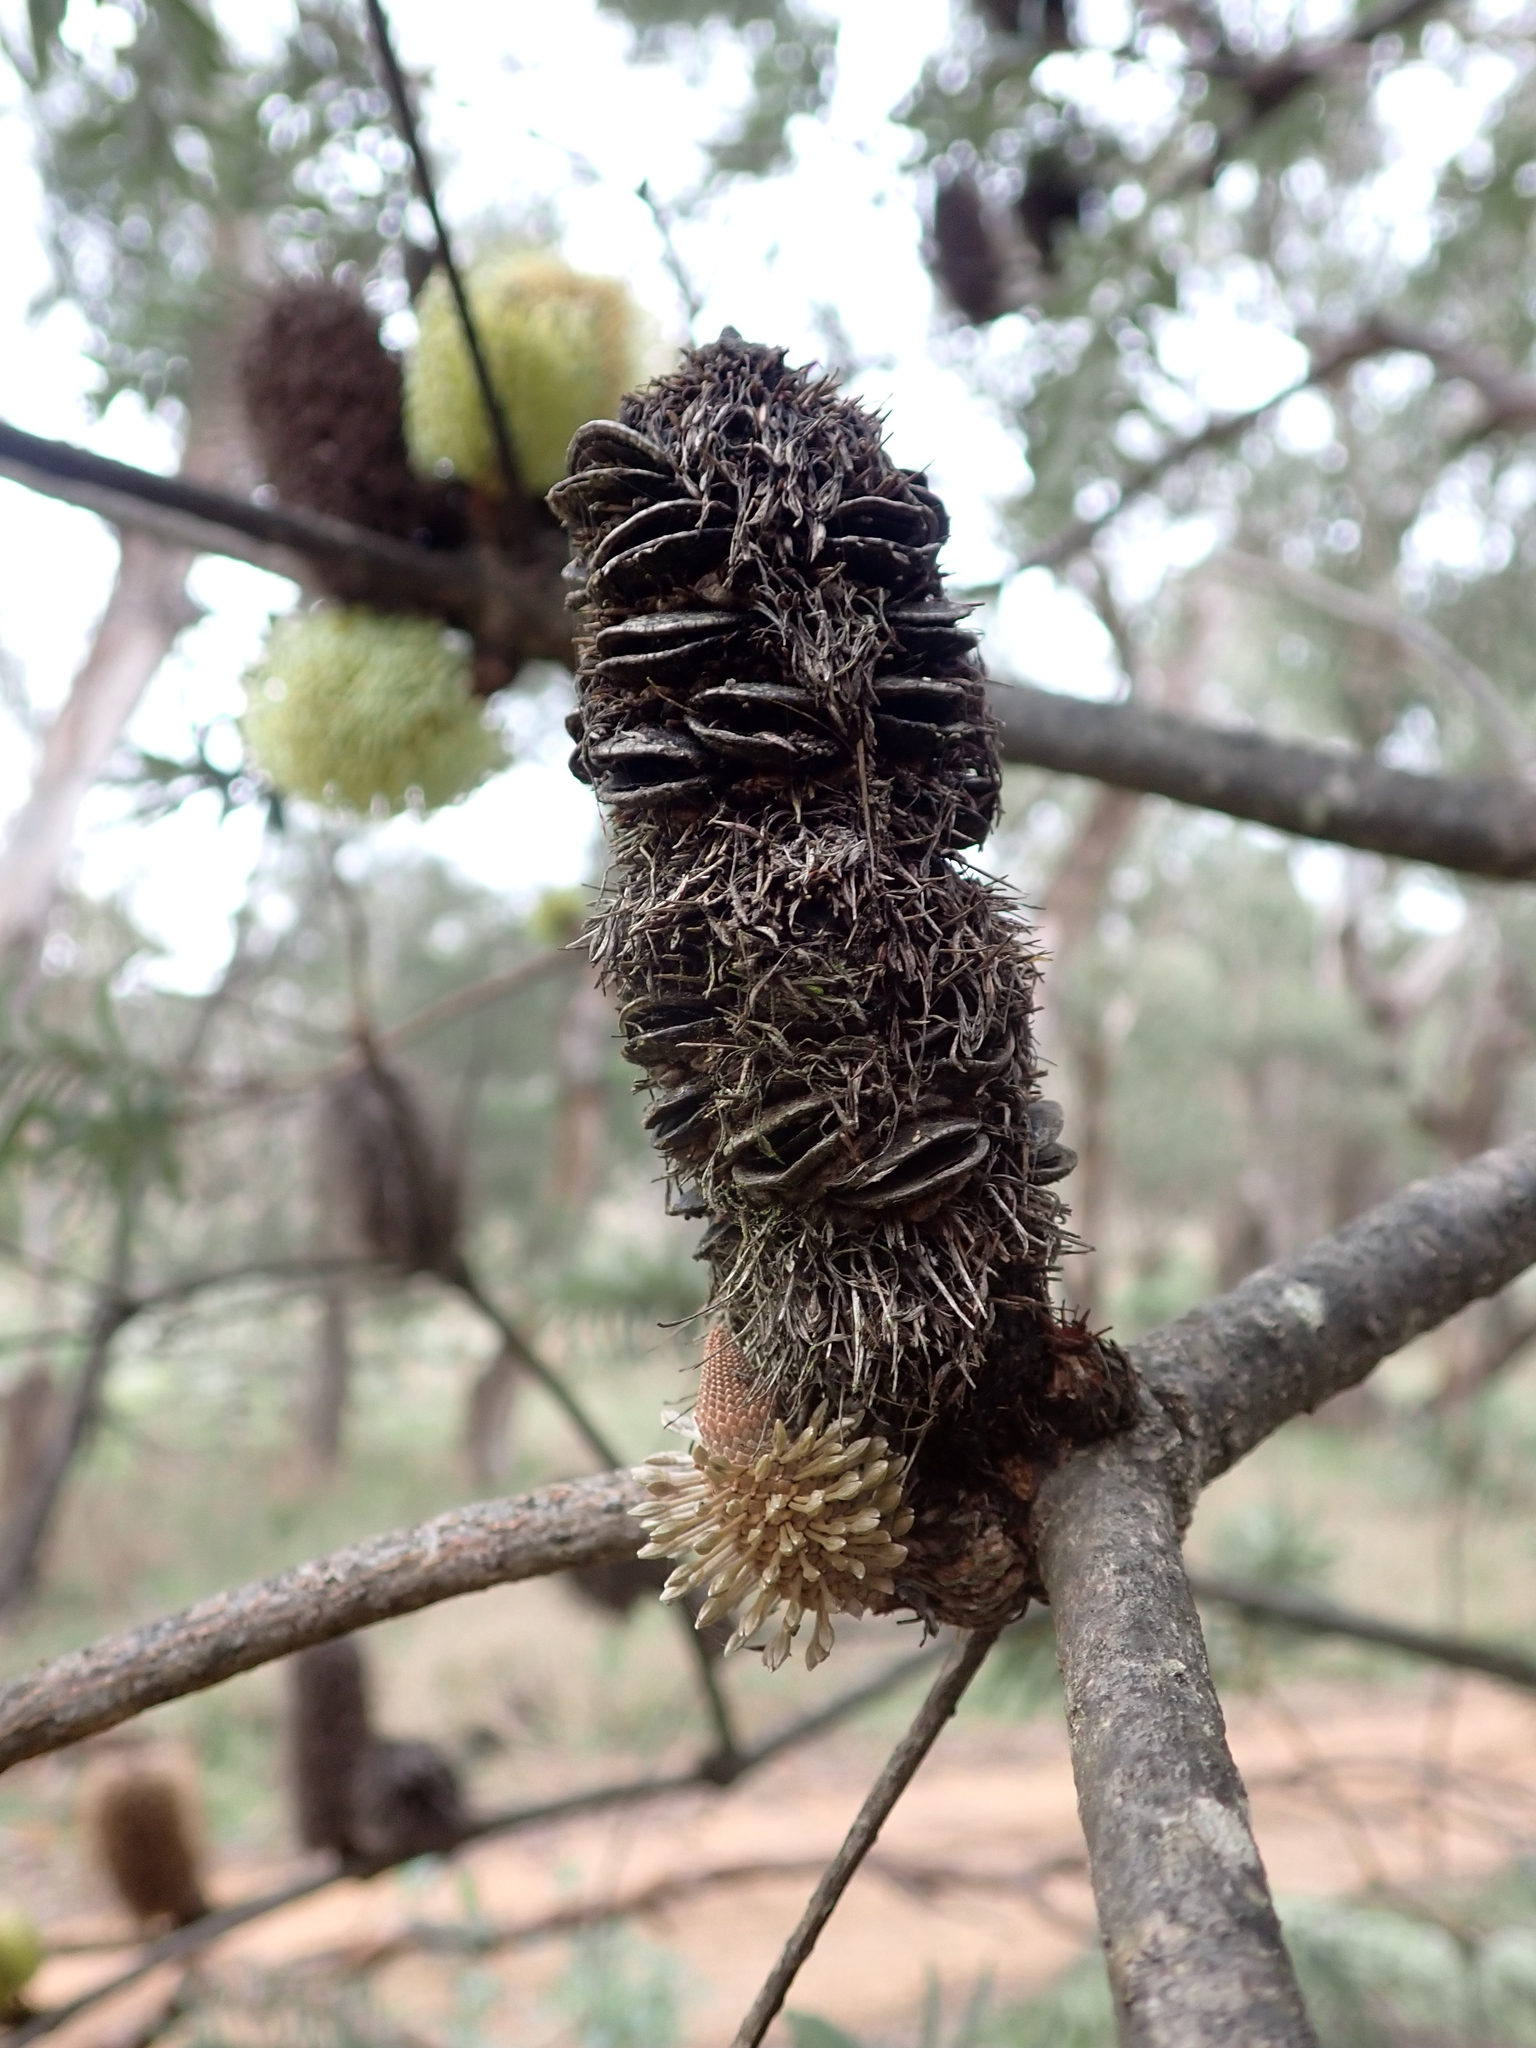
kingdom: Plantae
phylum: Tracheophyta
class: Magnoliopsida
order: Proteales
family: Proteaceae
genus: Banksia
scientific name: Banksia marginata
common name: Silver banksia
